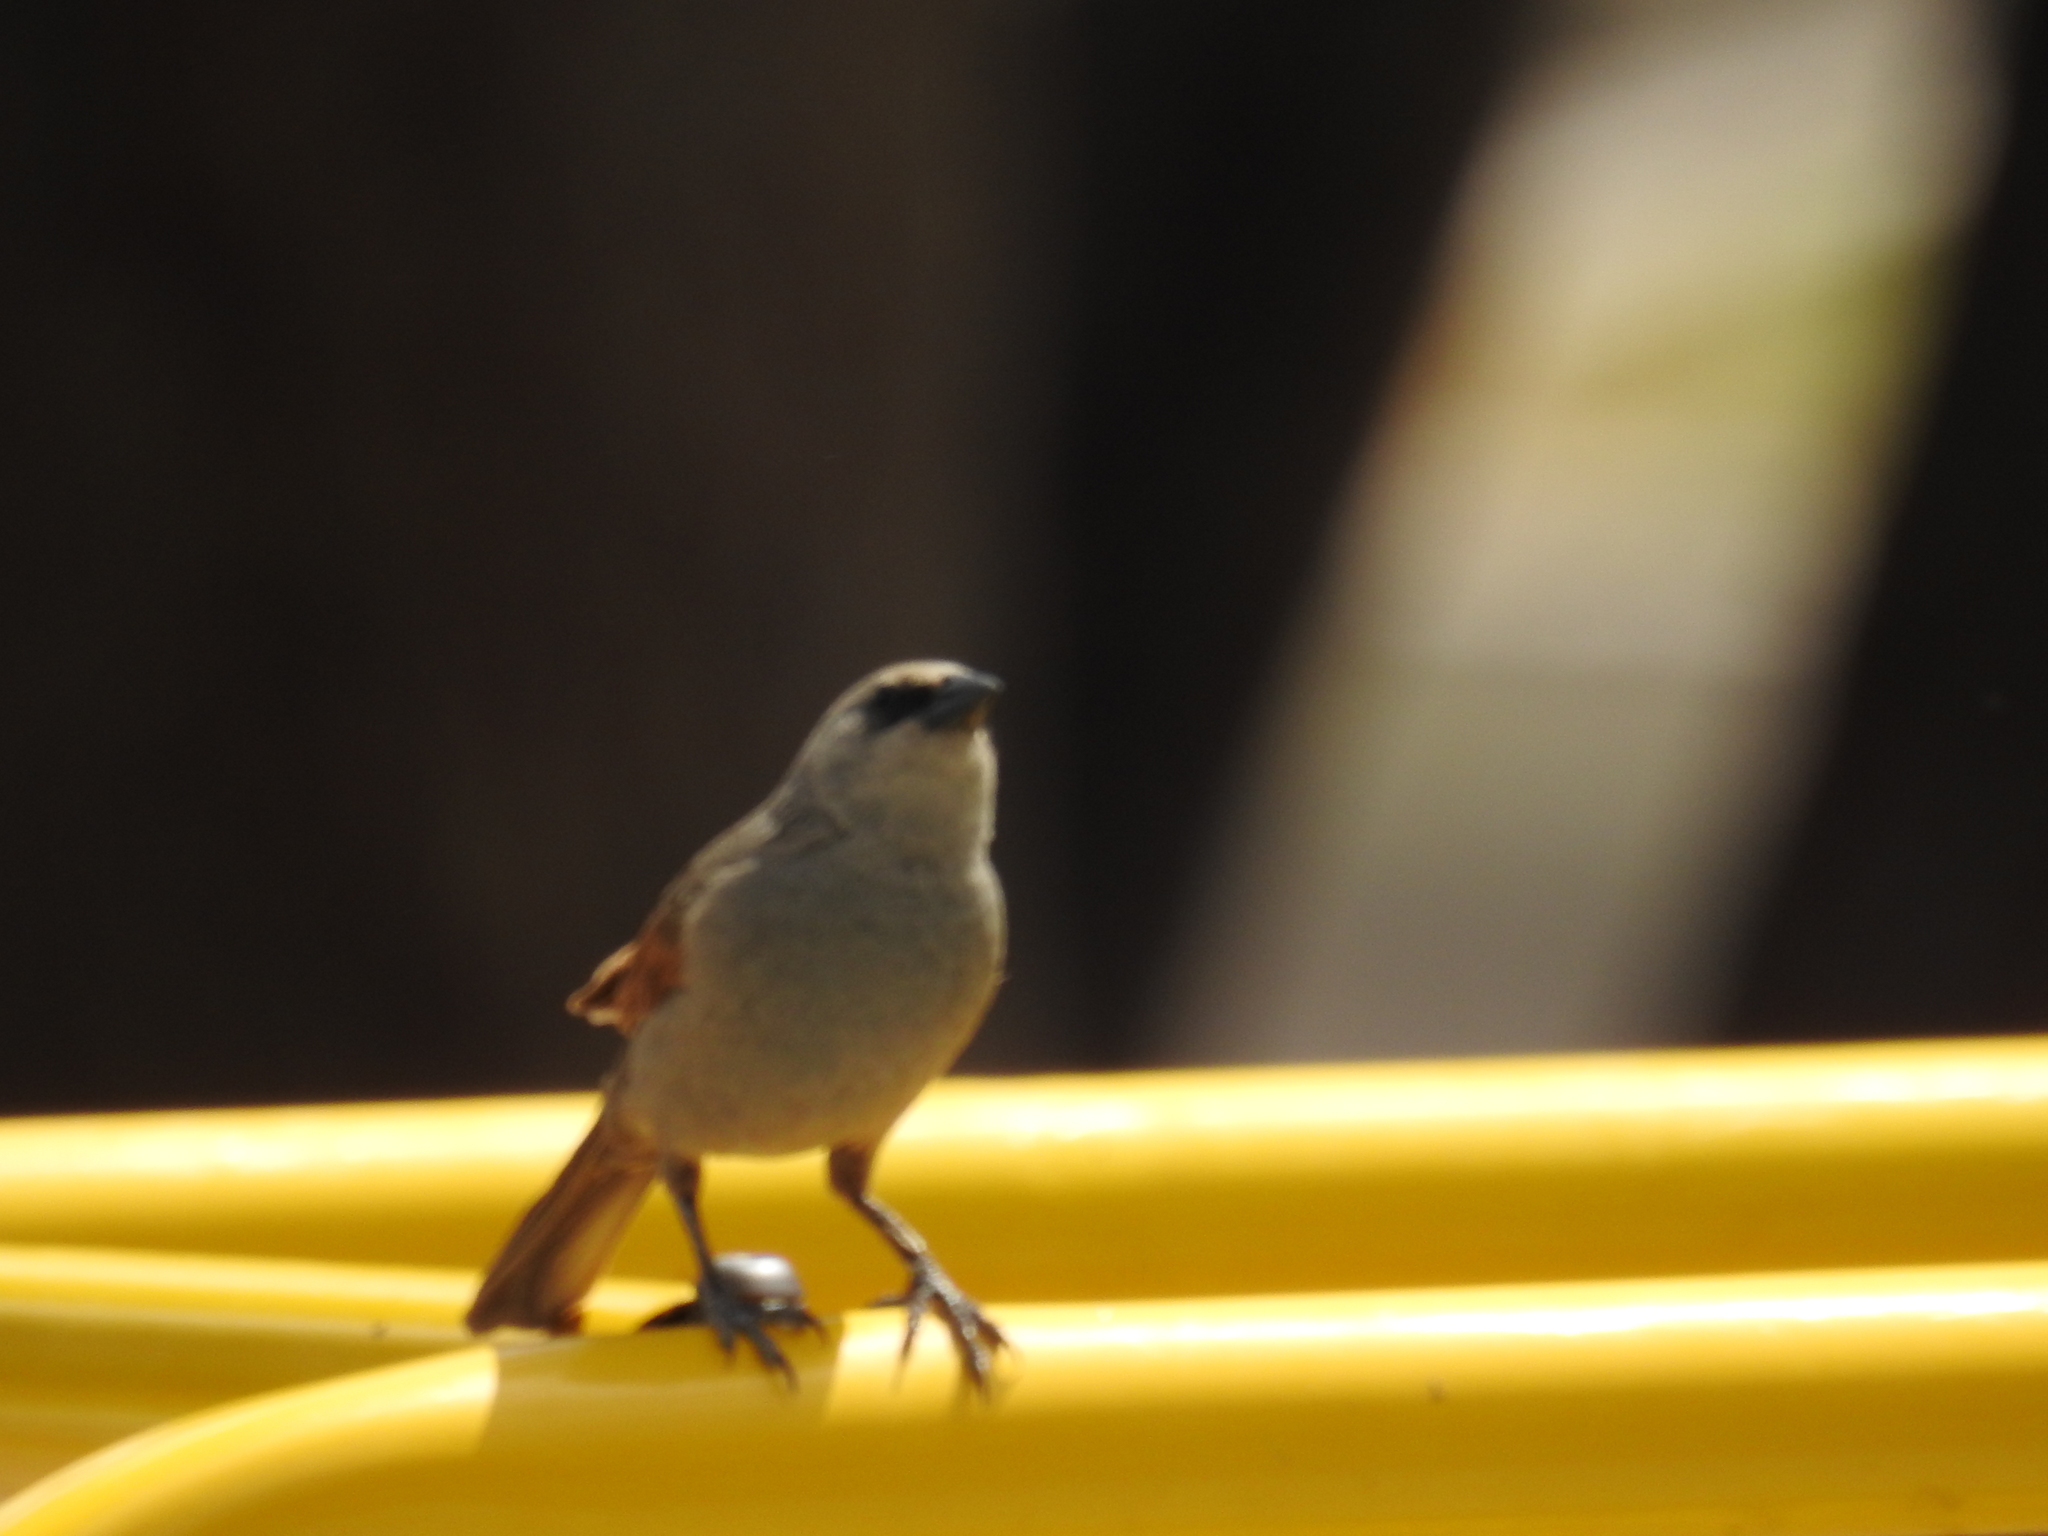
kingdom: Animalia
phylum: Chordata
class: Aves
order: Passeriformes
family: Icteridae
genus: Agelaioides
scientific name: Agelaioides badius
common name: Baywing
